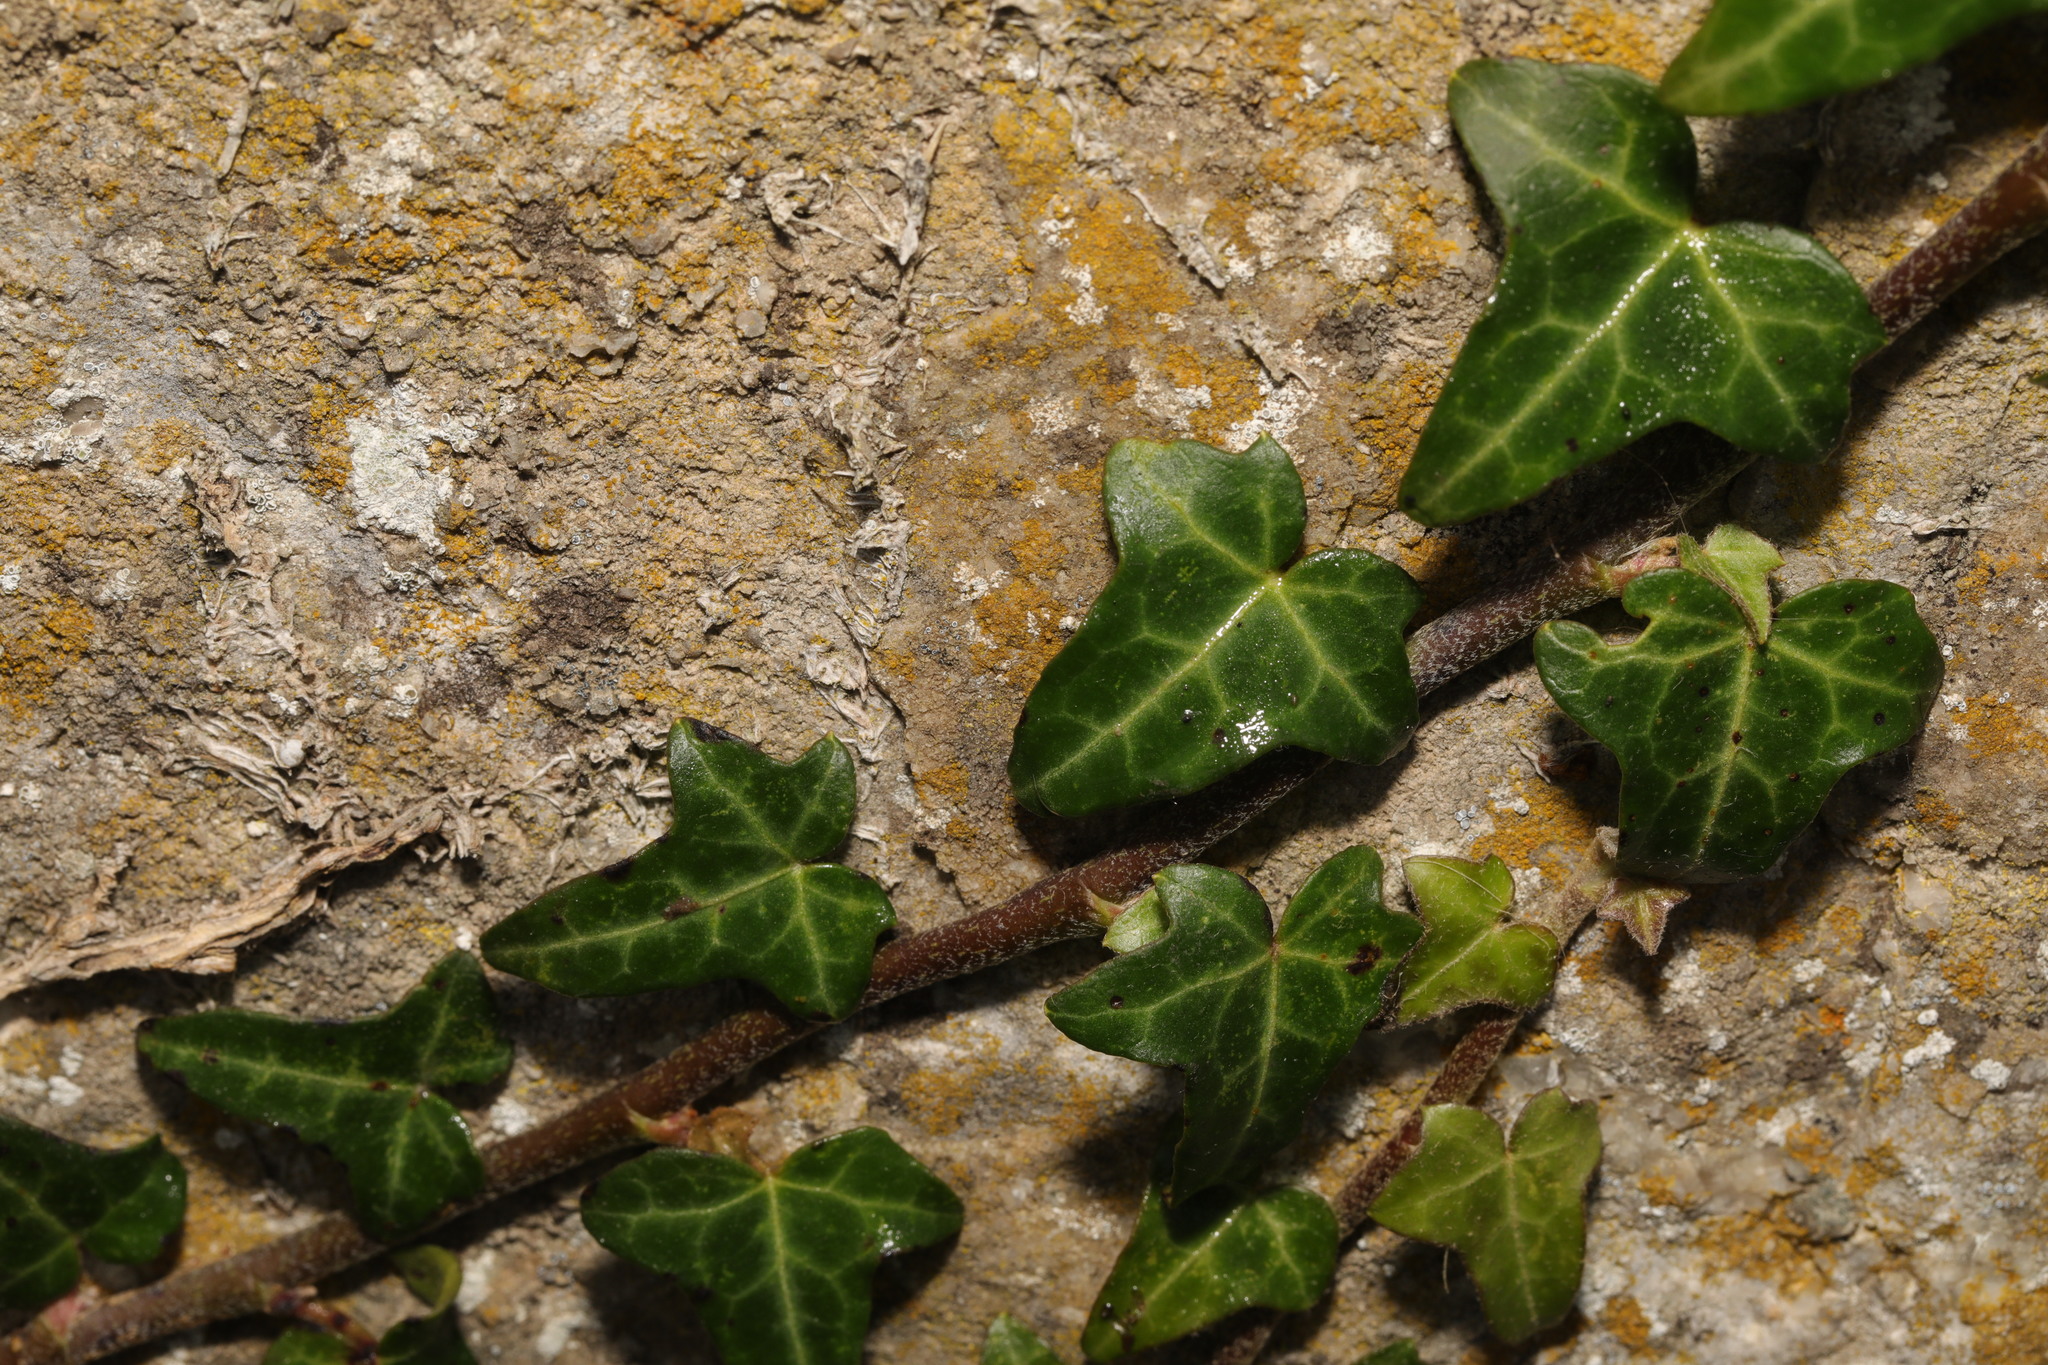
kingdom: Plantae
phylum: Tracheophyta
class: Magnoliopsida
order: Apiales
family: Araliaceae
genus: Hedera
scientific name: Hedera helix
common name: Ivy
